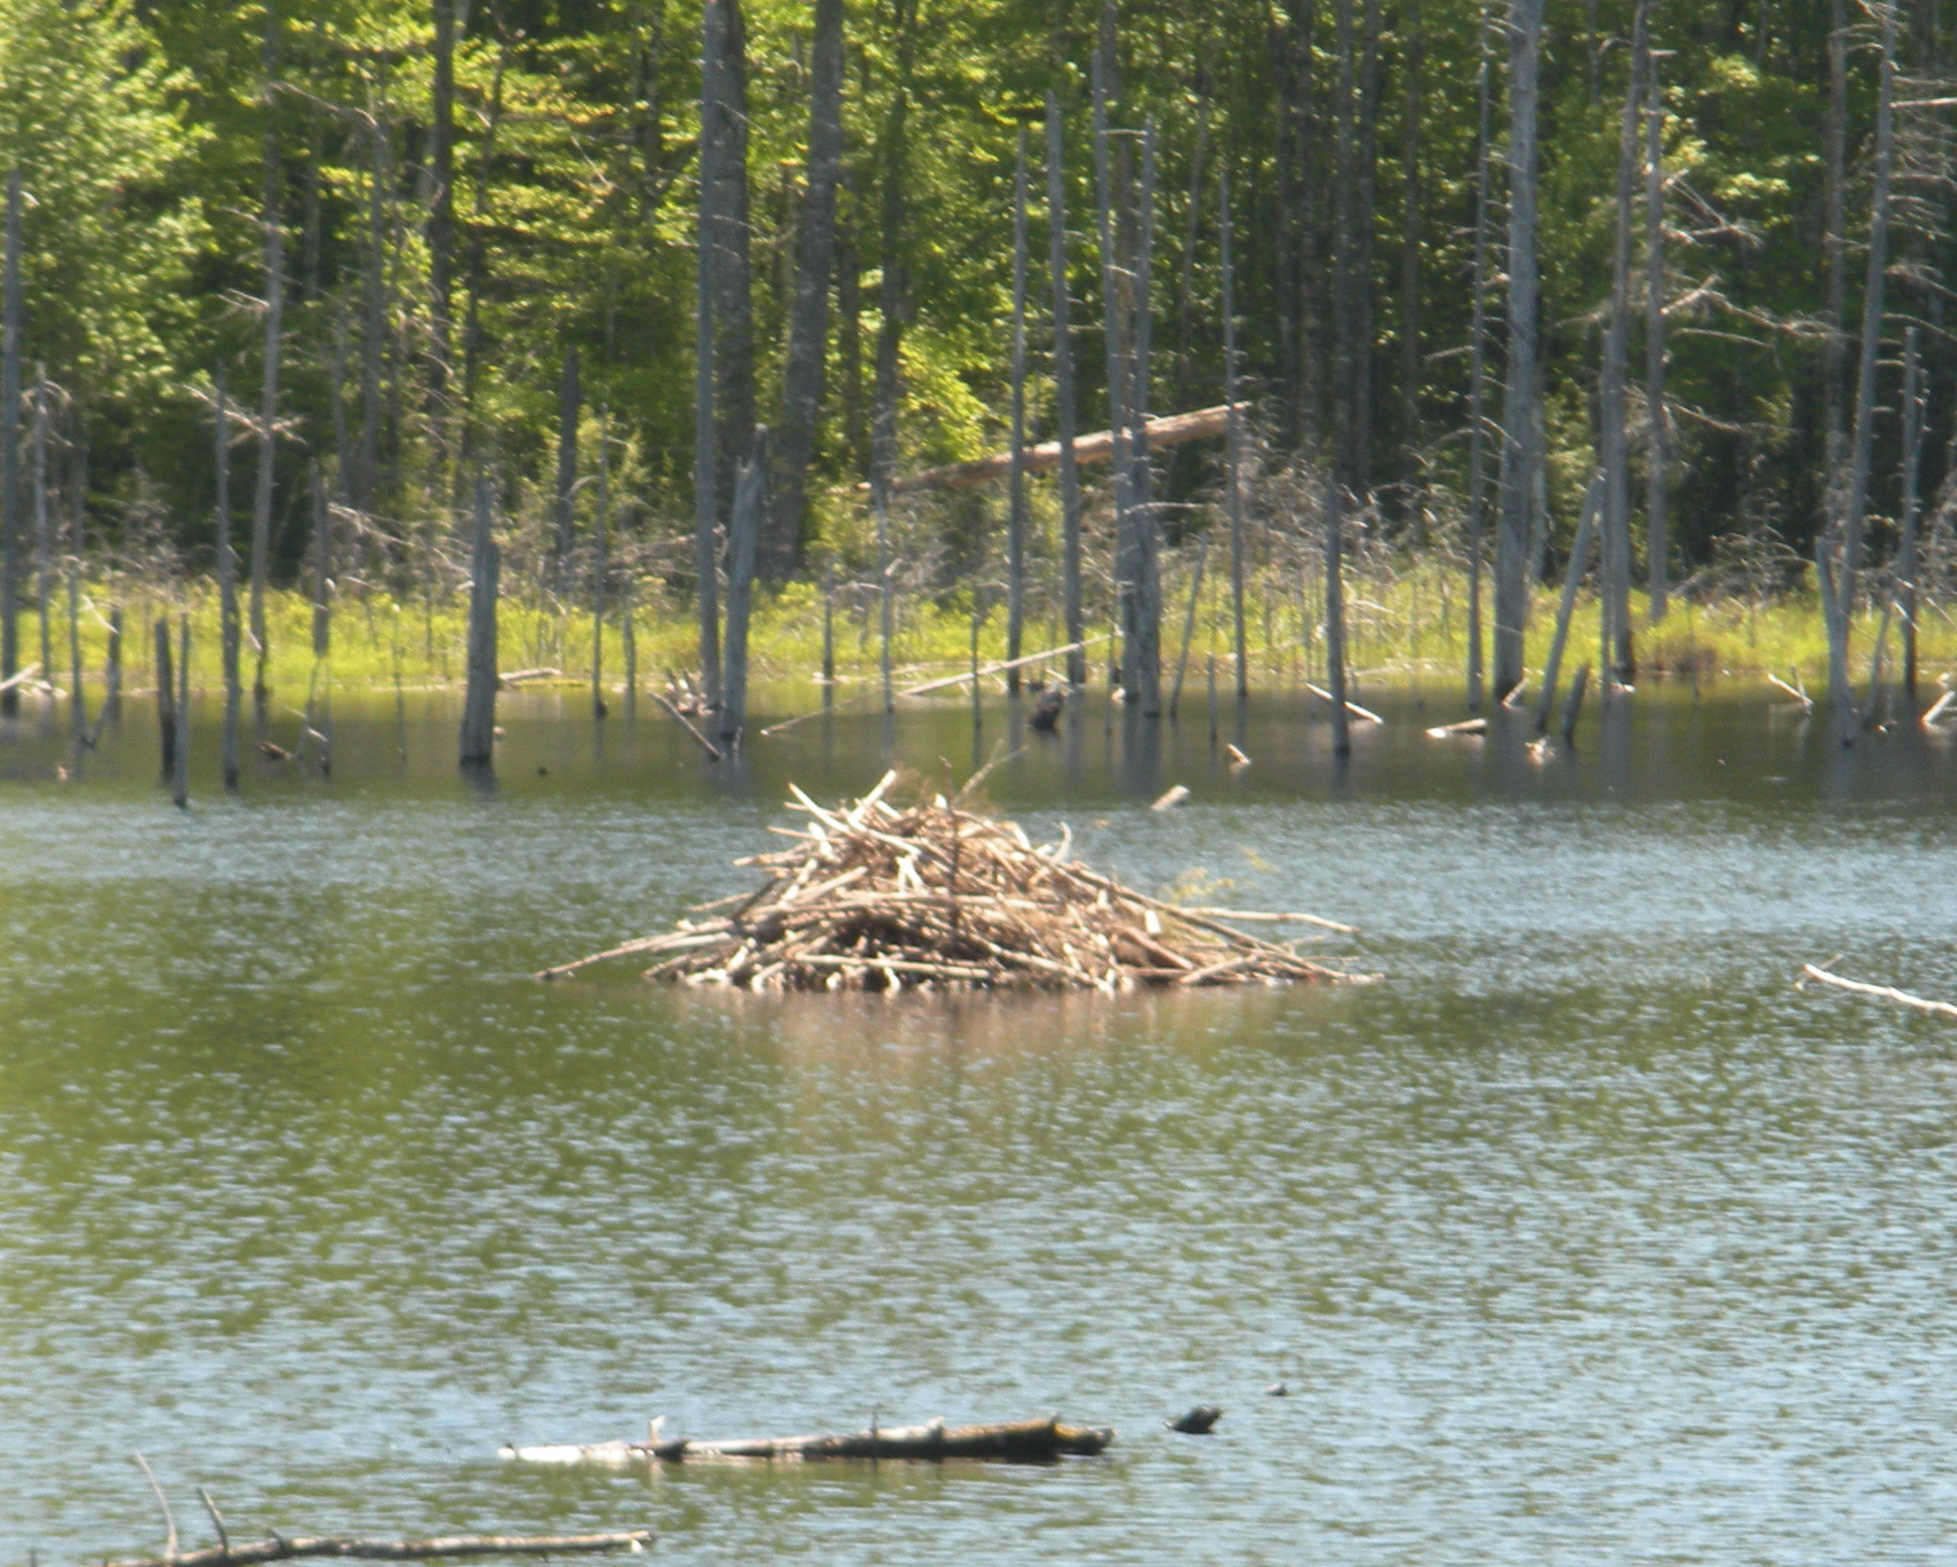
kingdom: Animalia
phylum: Chordata
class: Mammalia
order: Rodentia
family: Castoridae
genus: Castor
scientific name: Castor canadensis
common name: American beaver
